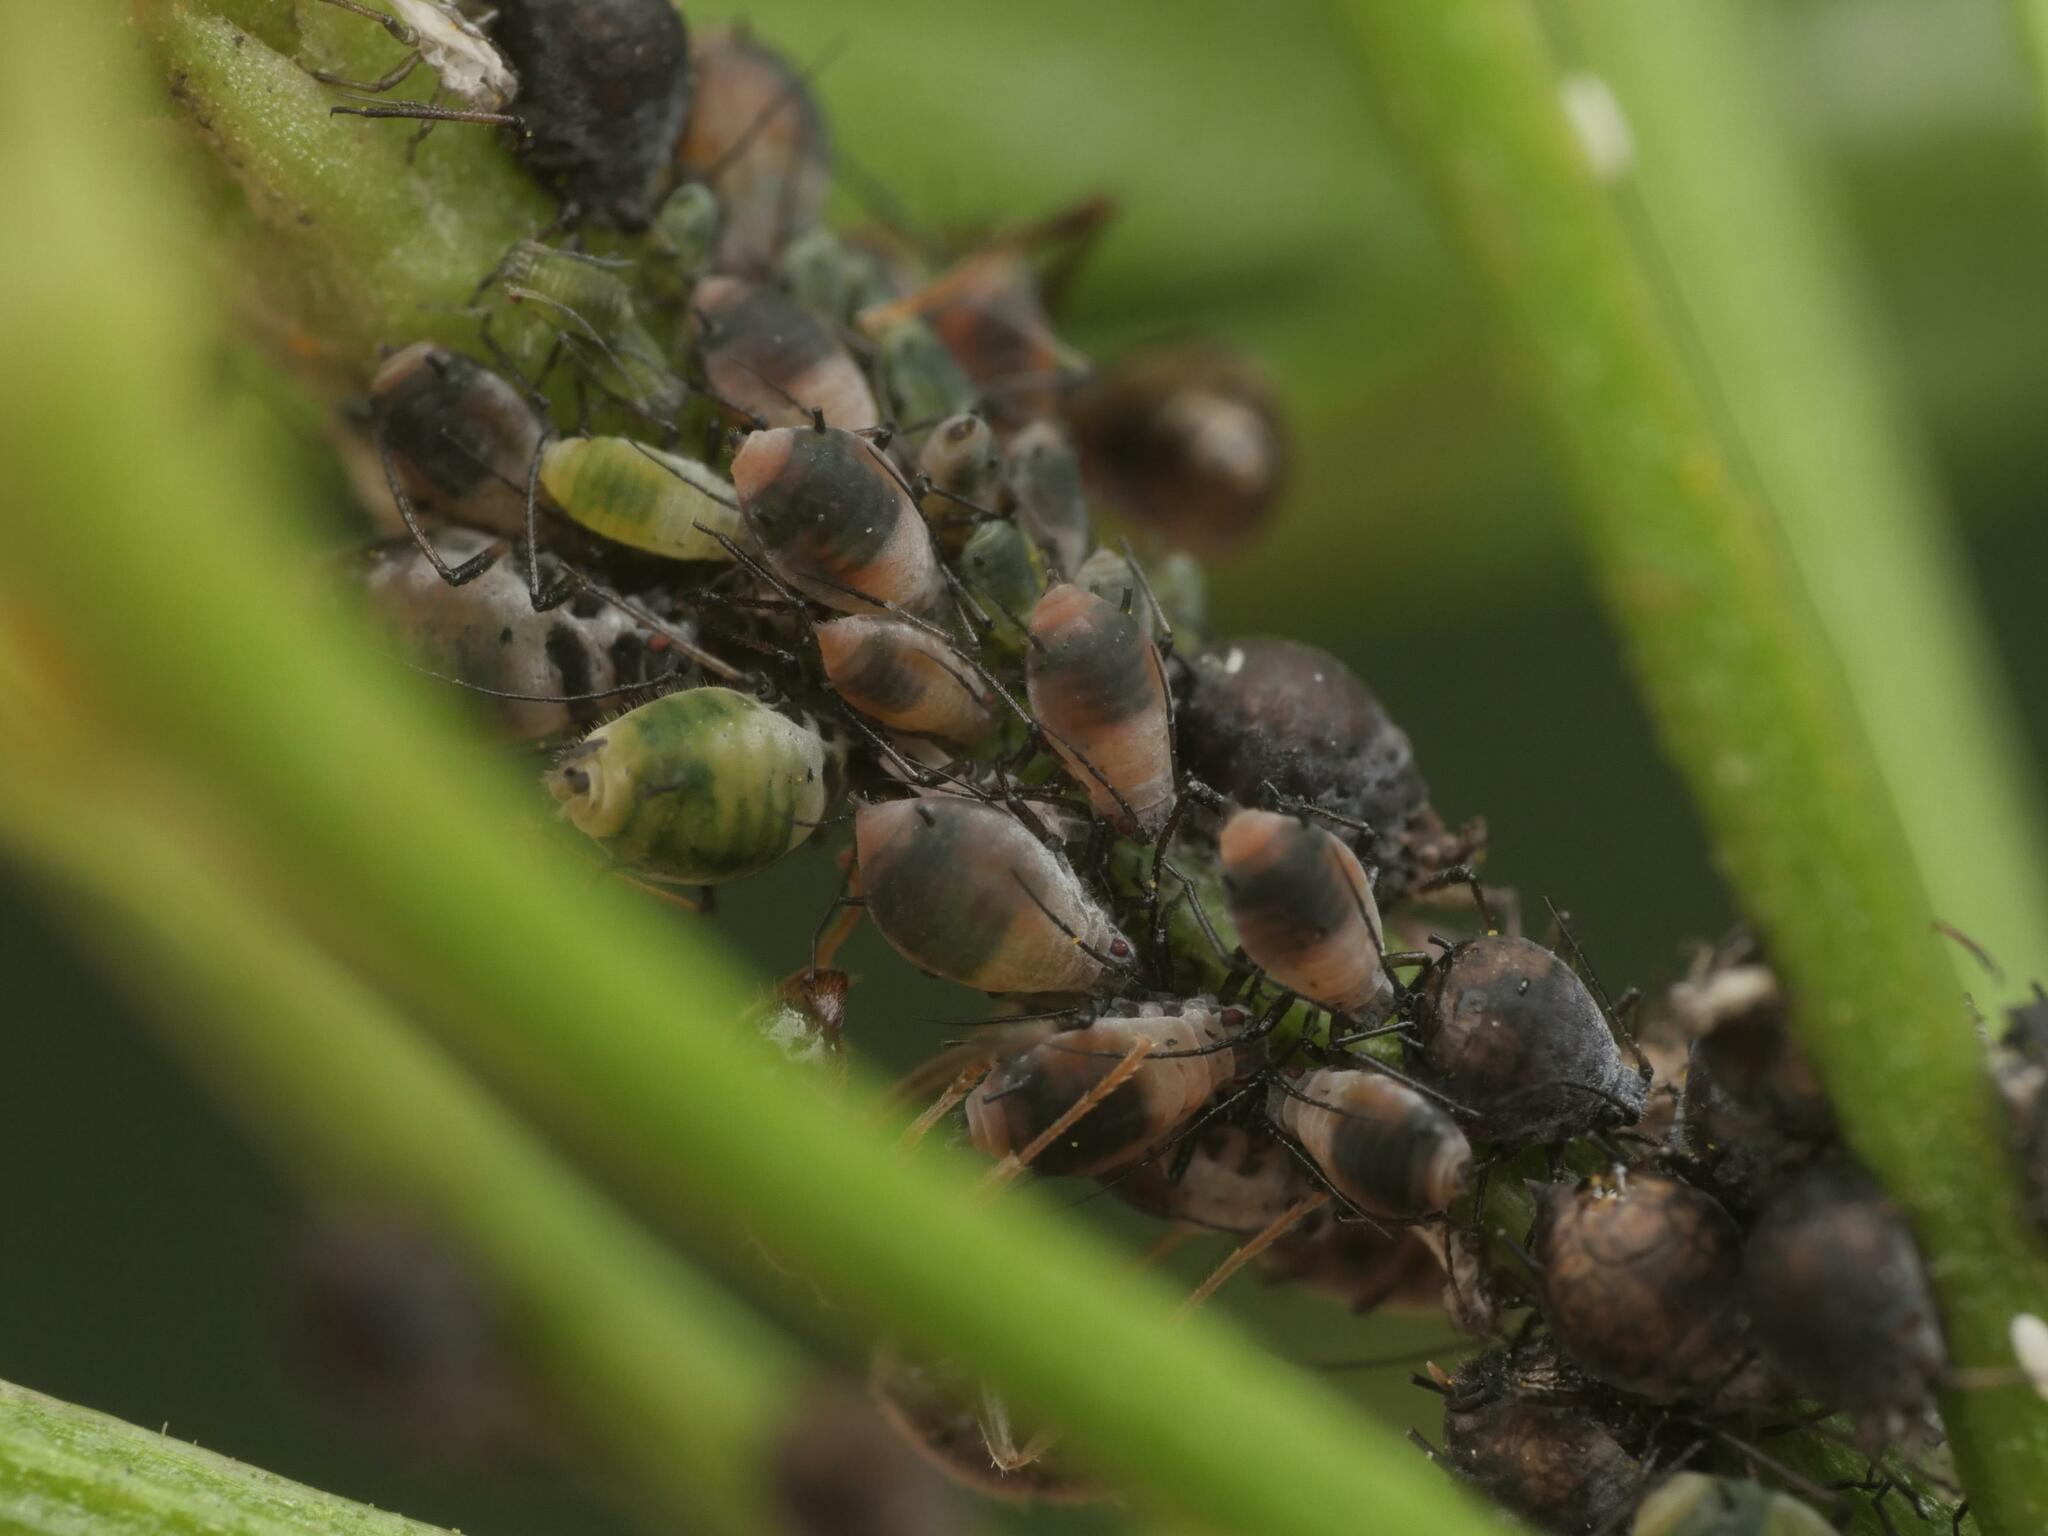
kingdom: Animalia
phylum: Arthropoda
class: Insecta
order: Hemiptera
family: Aphididae
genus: Metopeurum
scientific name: Metopeurum fuscoviride
